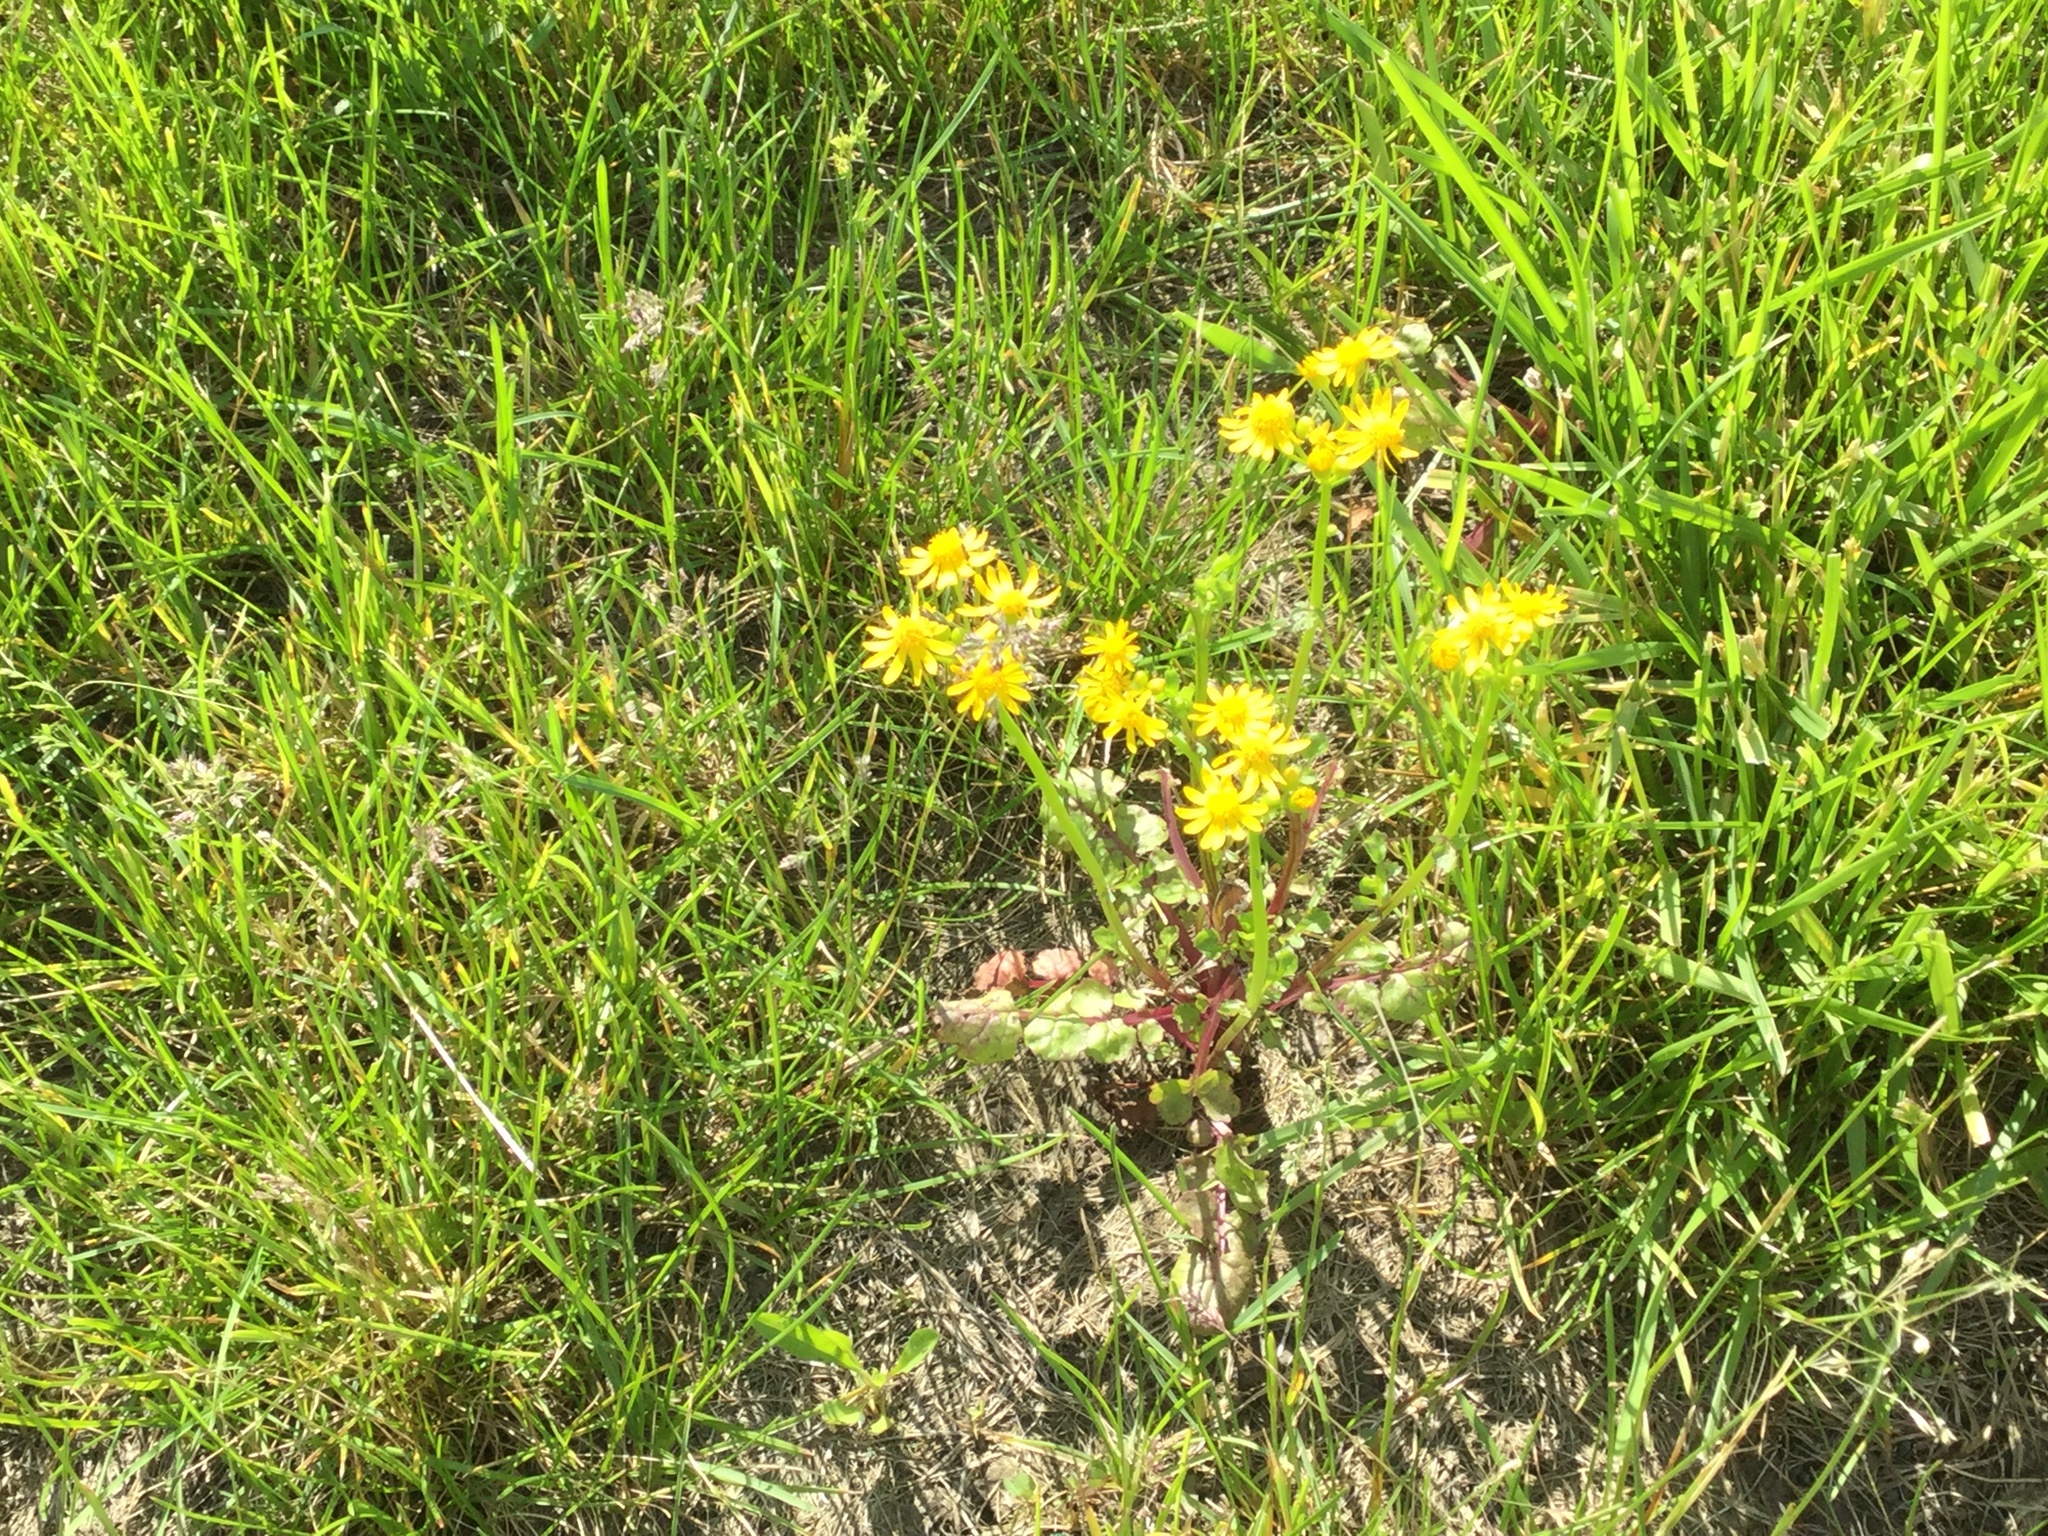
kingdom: Plantae
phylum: Tracheophyta
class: Magnoliopsida
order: Asterales
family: Asteraceae
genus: Packera
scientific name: Packera glabella
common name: Butterweed
